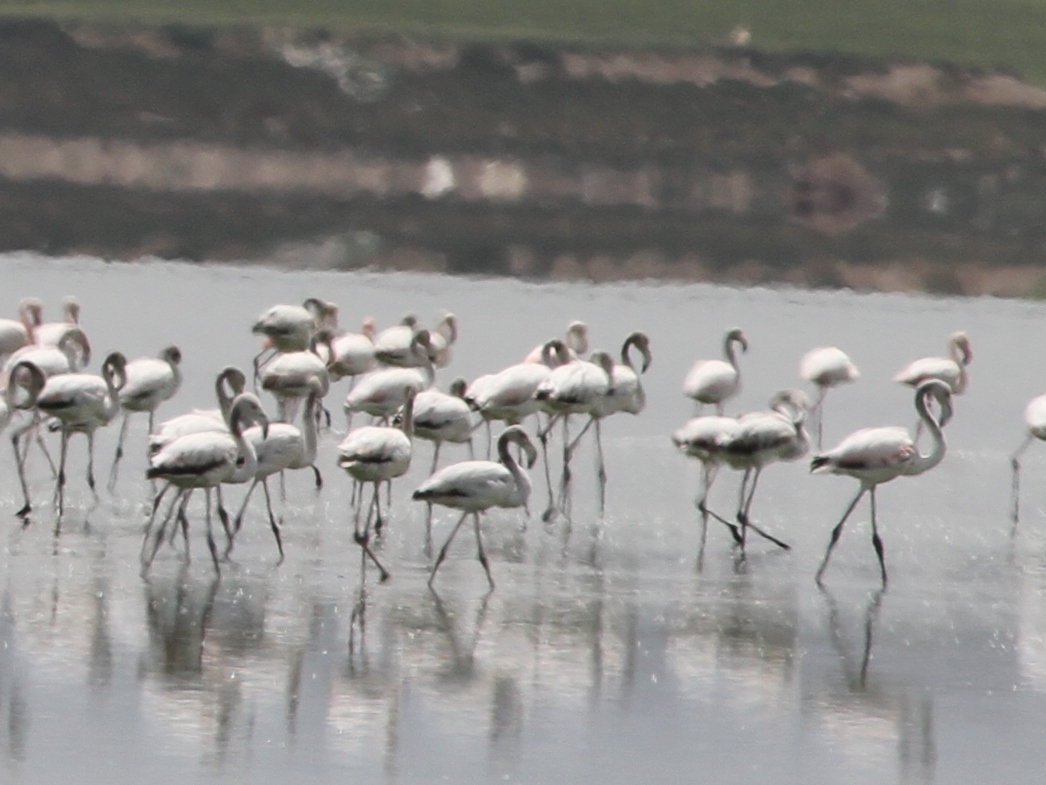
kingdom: Animalia
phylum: Chordata
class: Aves
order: Phoenicopteriformes
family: Phoenicopteridae
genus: Phoenicopterus
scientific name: Phoenicopterus roseus
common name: Greater flamingo
